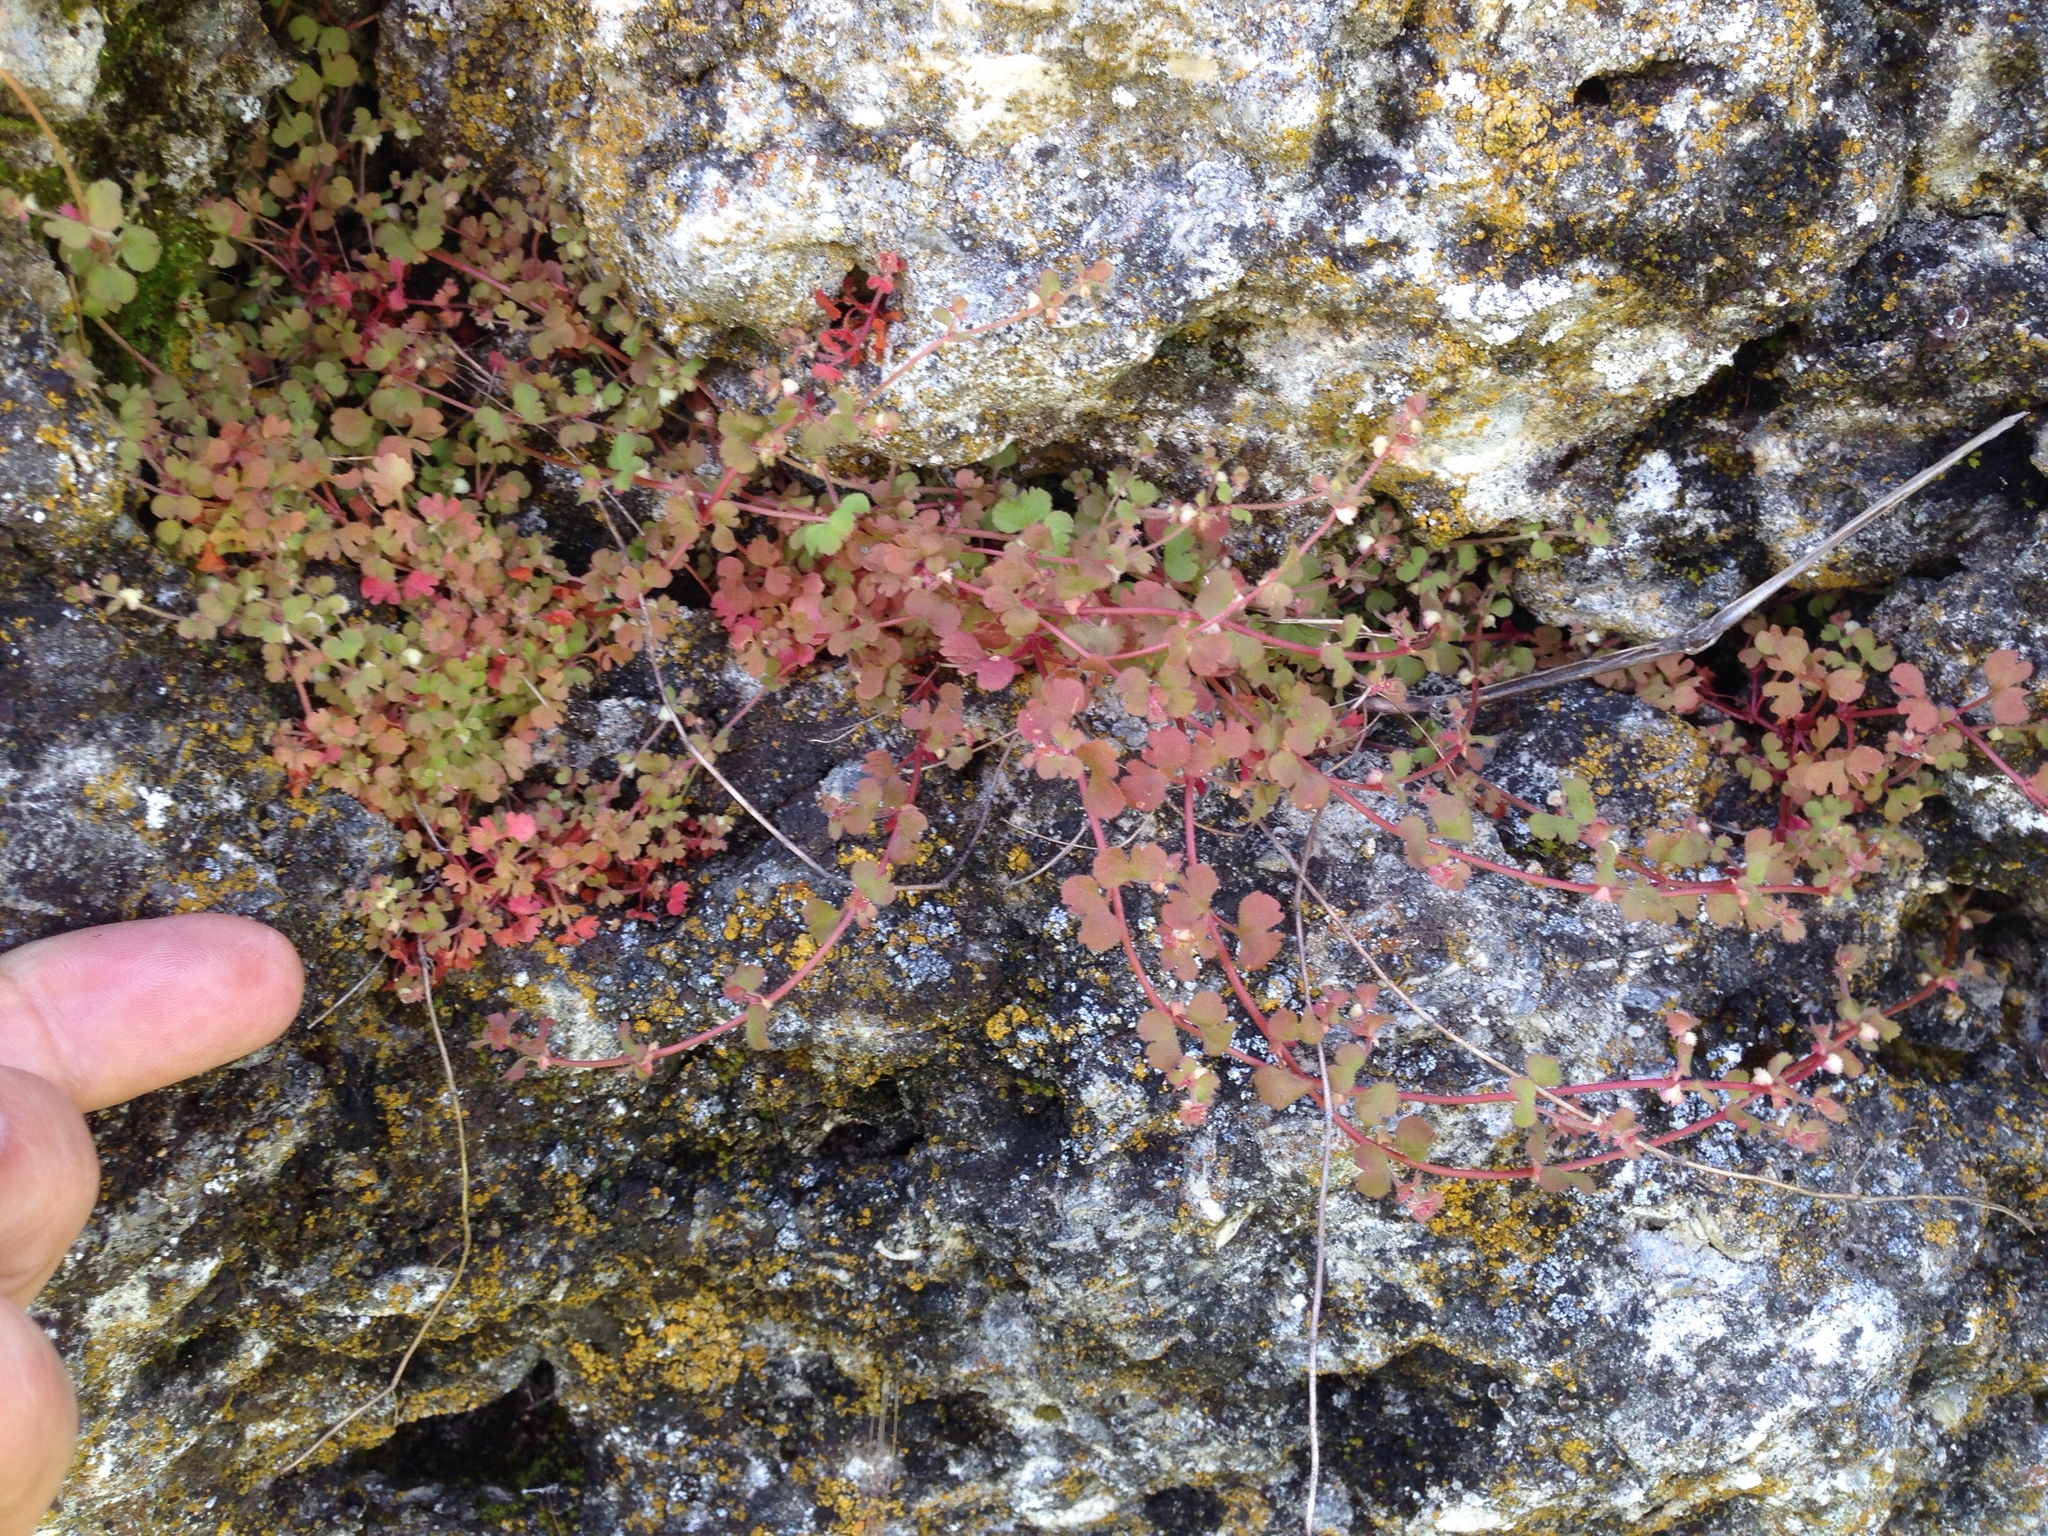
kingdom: Plantae
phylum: Tracheophyta
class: Magnoliopsida
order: Caryophyllales
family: Polygonaceae
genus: Pterostegia
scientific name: Pterostegia drymarioides
